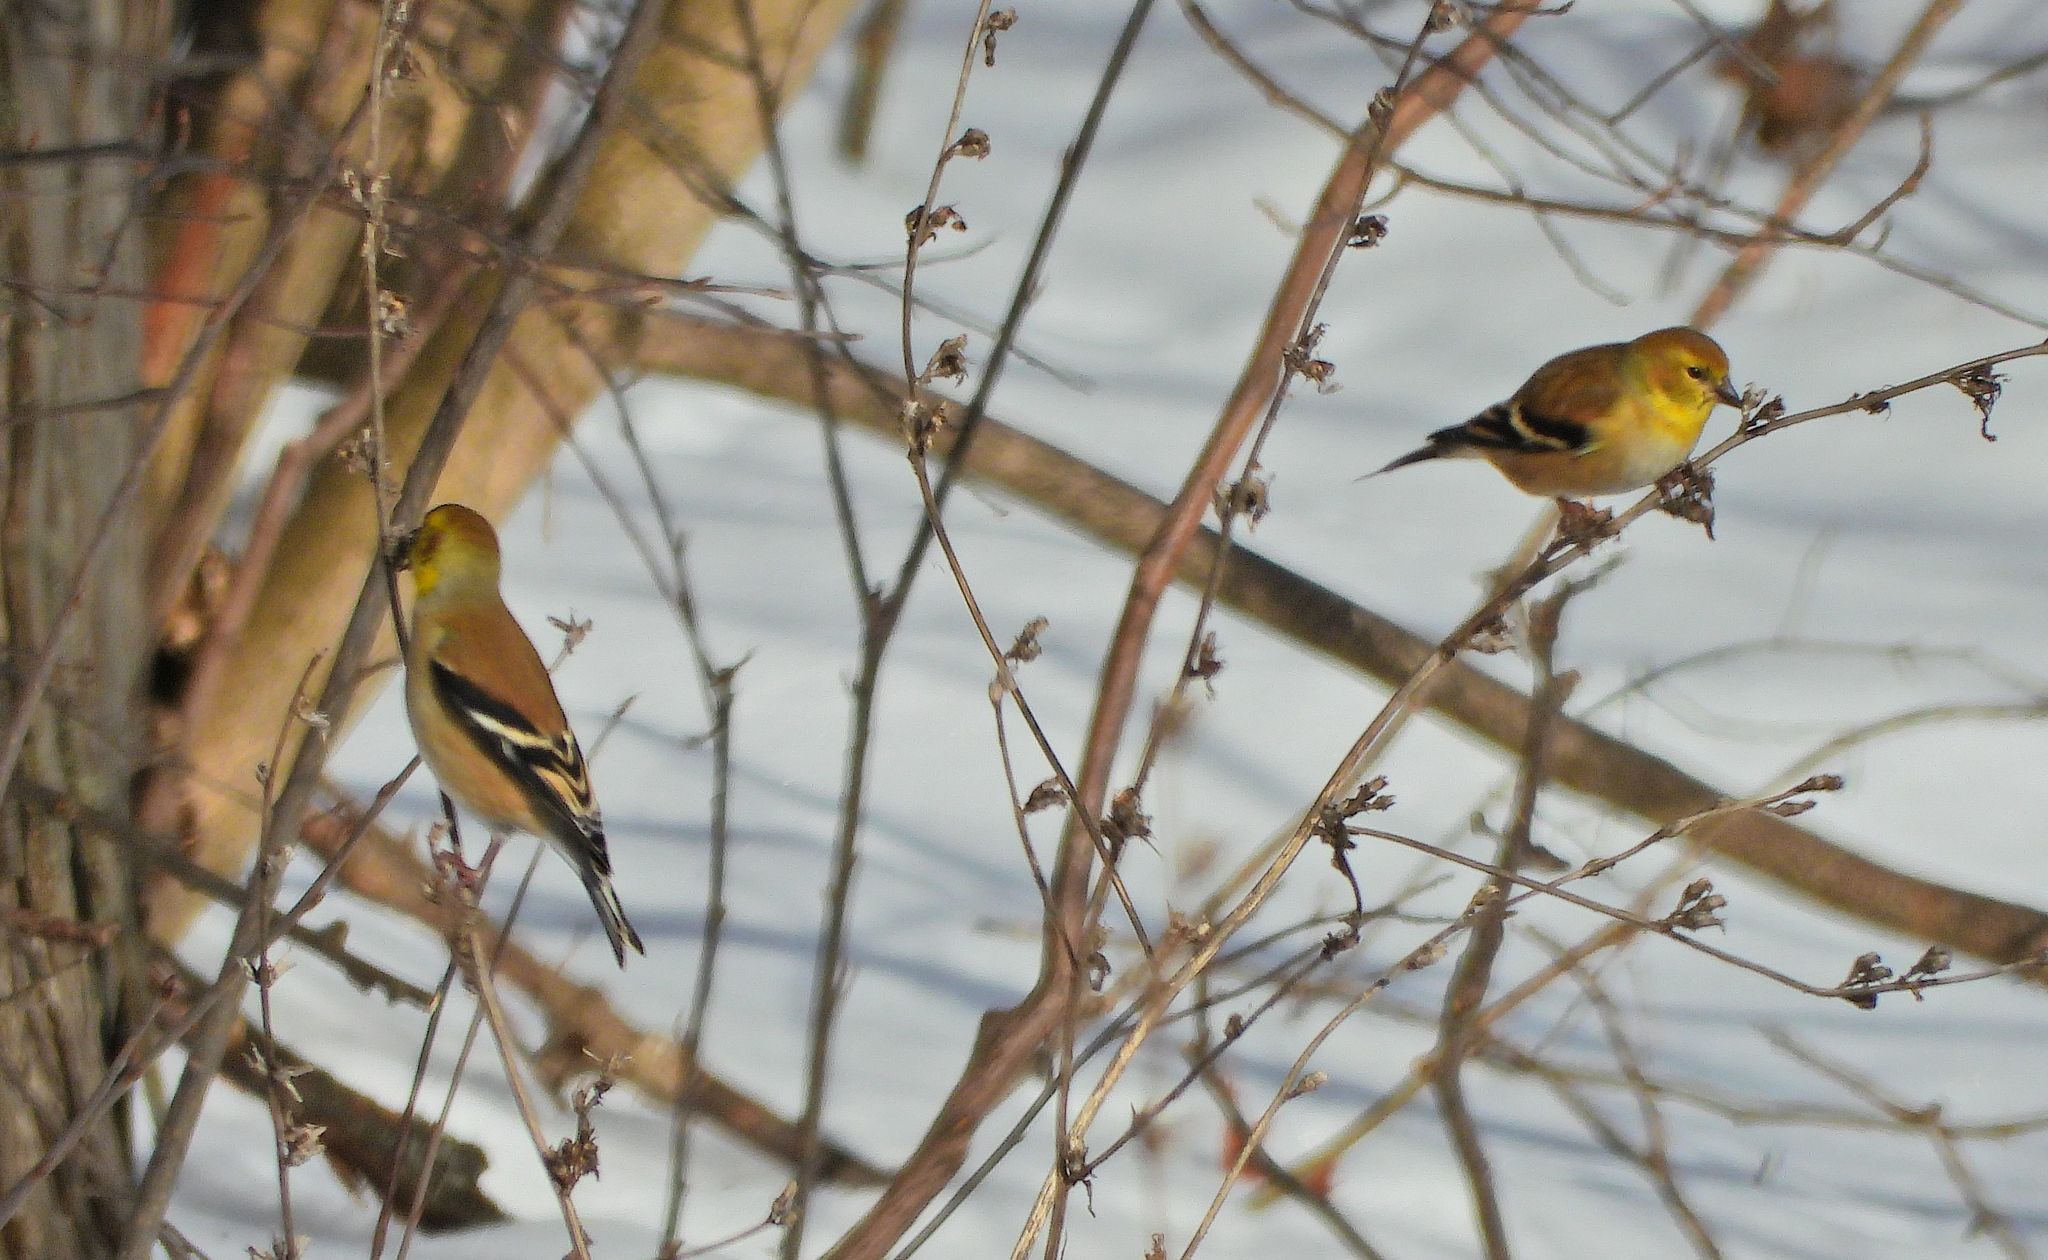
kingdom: Animalia
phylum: Chordata
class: Aves
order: Passeriformes
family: Fringillidae
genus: Spinus
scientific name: Spinus tristis
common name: American goldfinch
